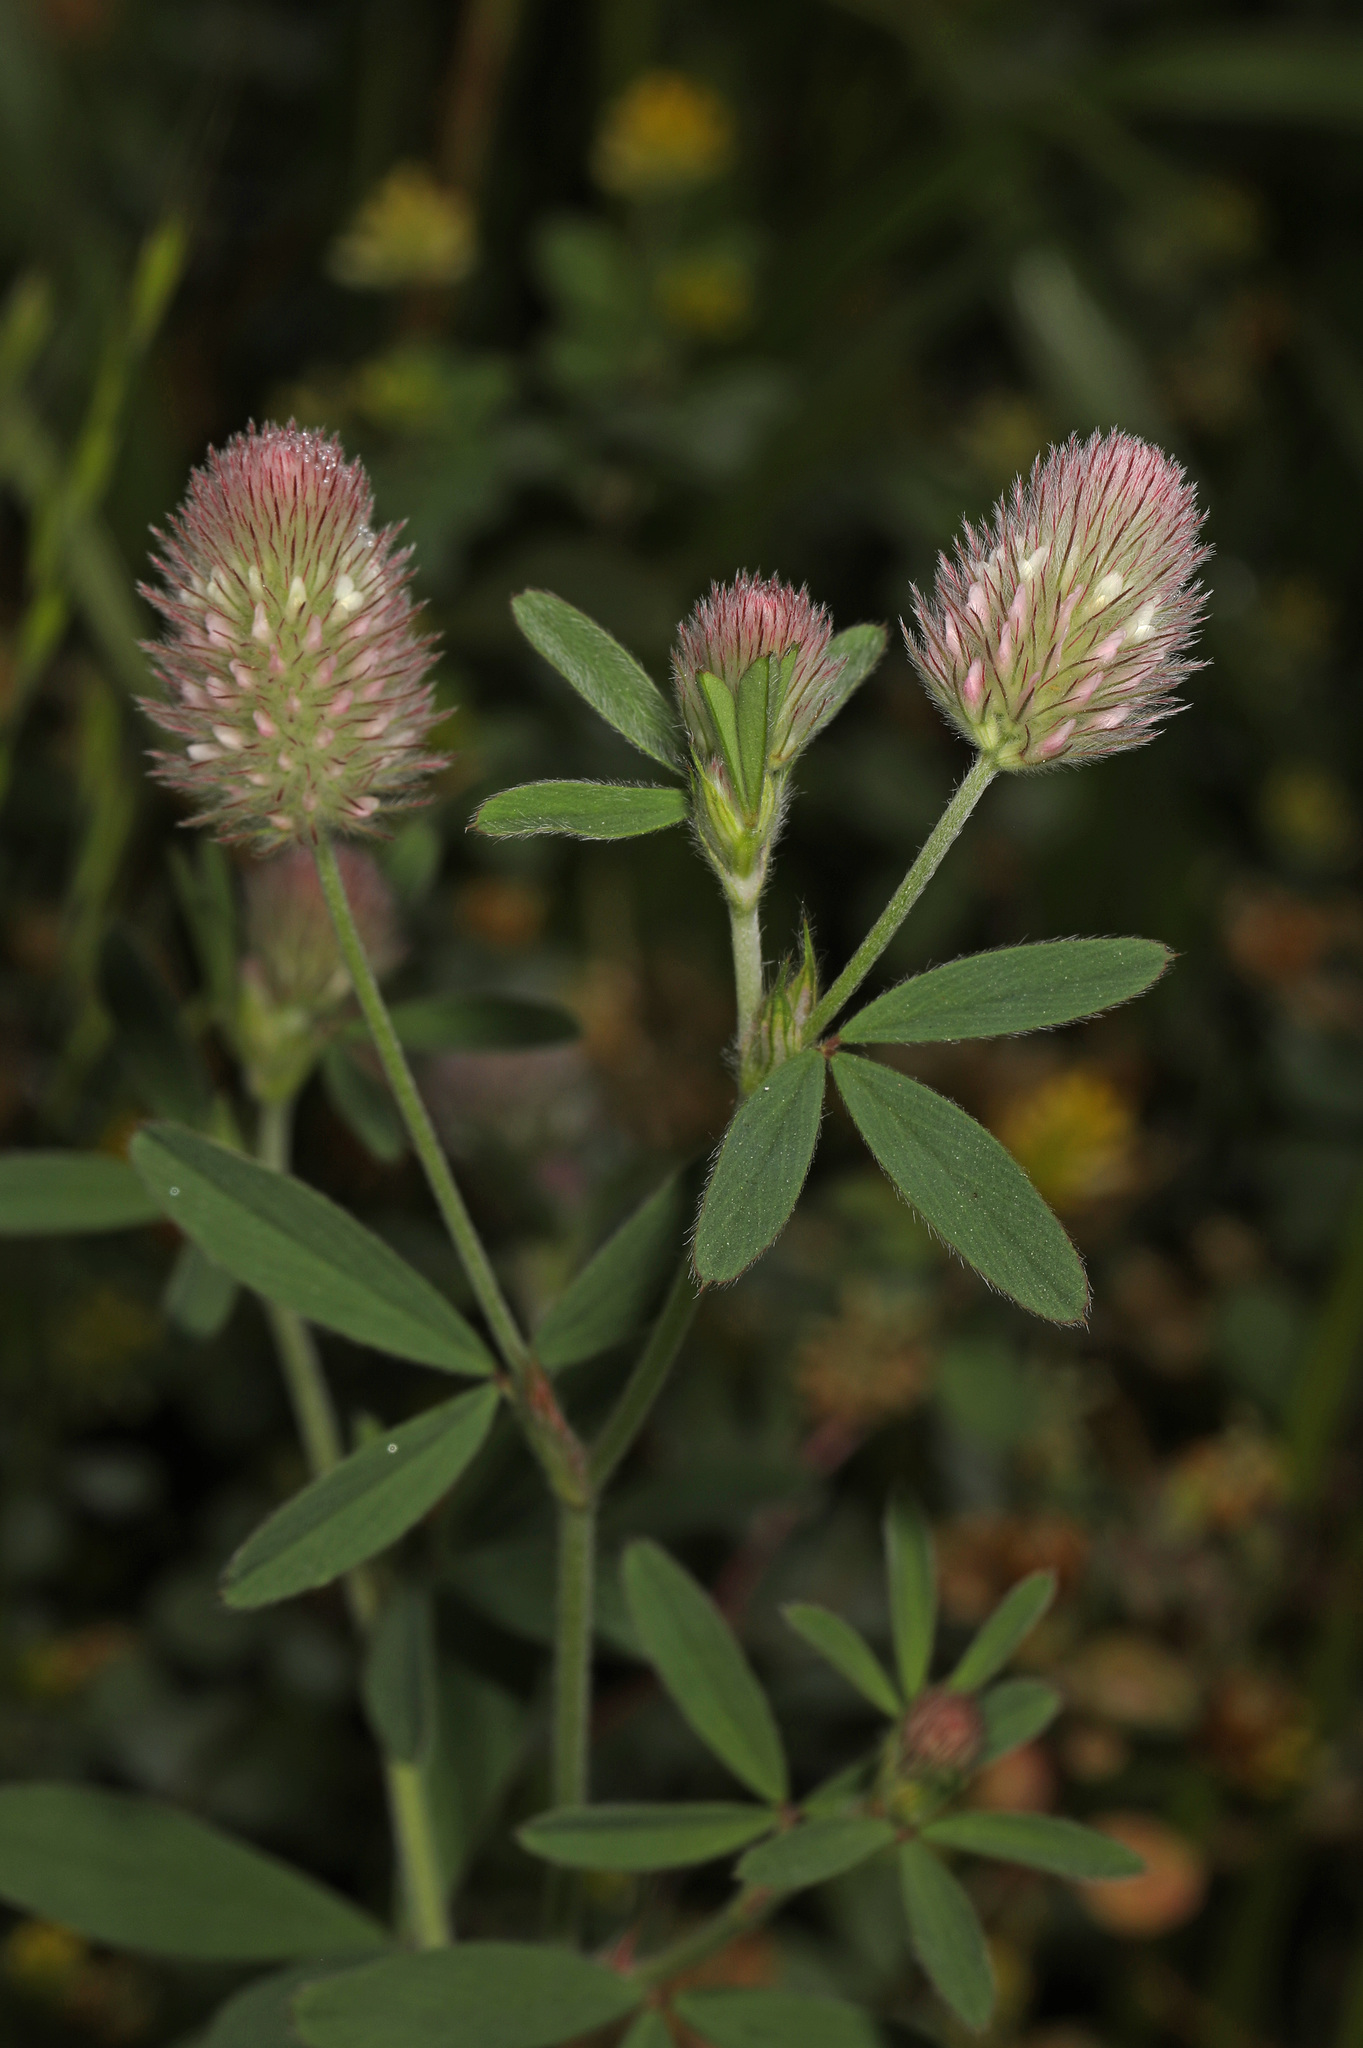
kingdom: Plantae
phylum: Tracheophyta
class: Magnoliopsida
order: Fabales
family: Fabaceae
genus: Trifolium
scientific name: Trifolium arvense
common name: Hare's-foot clover
